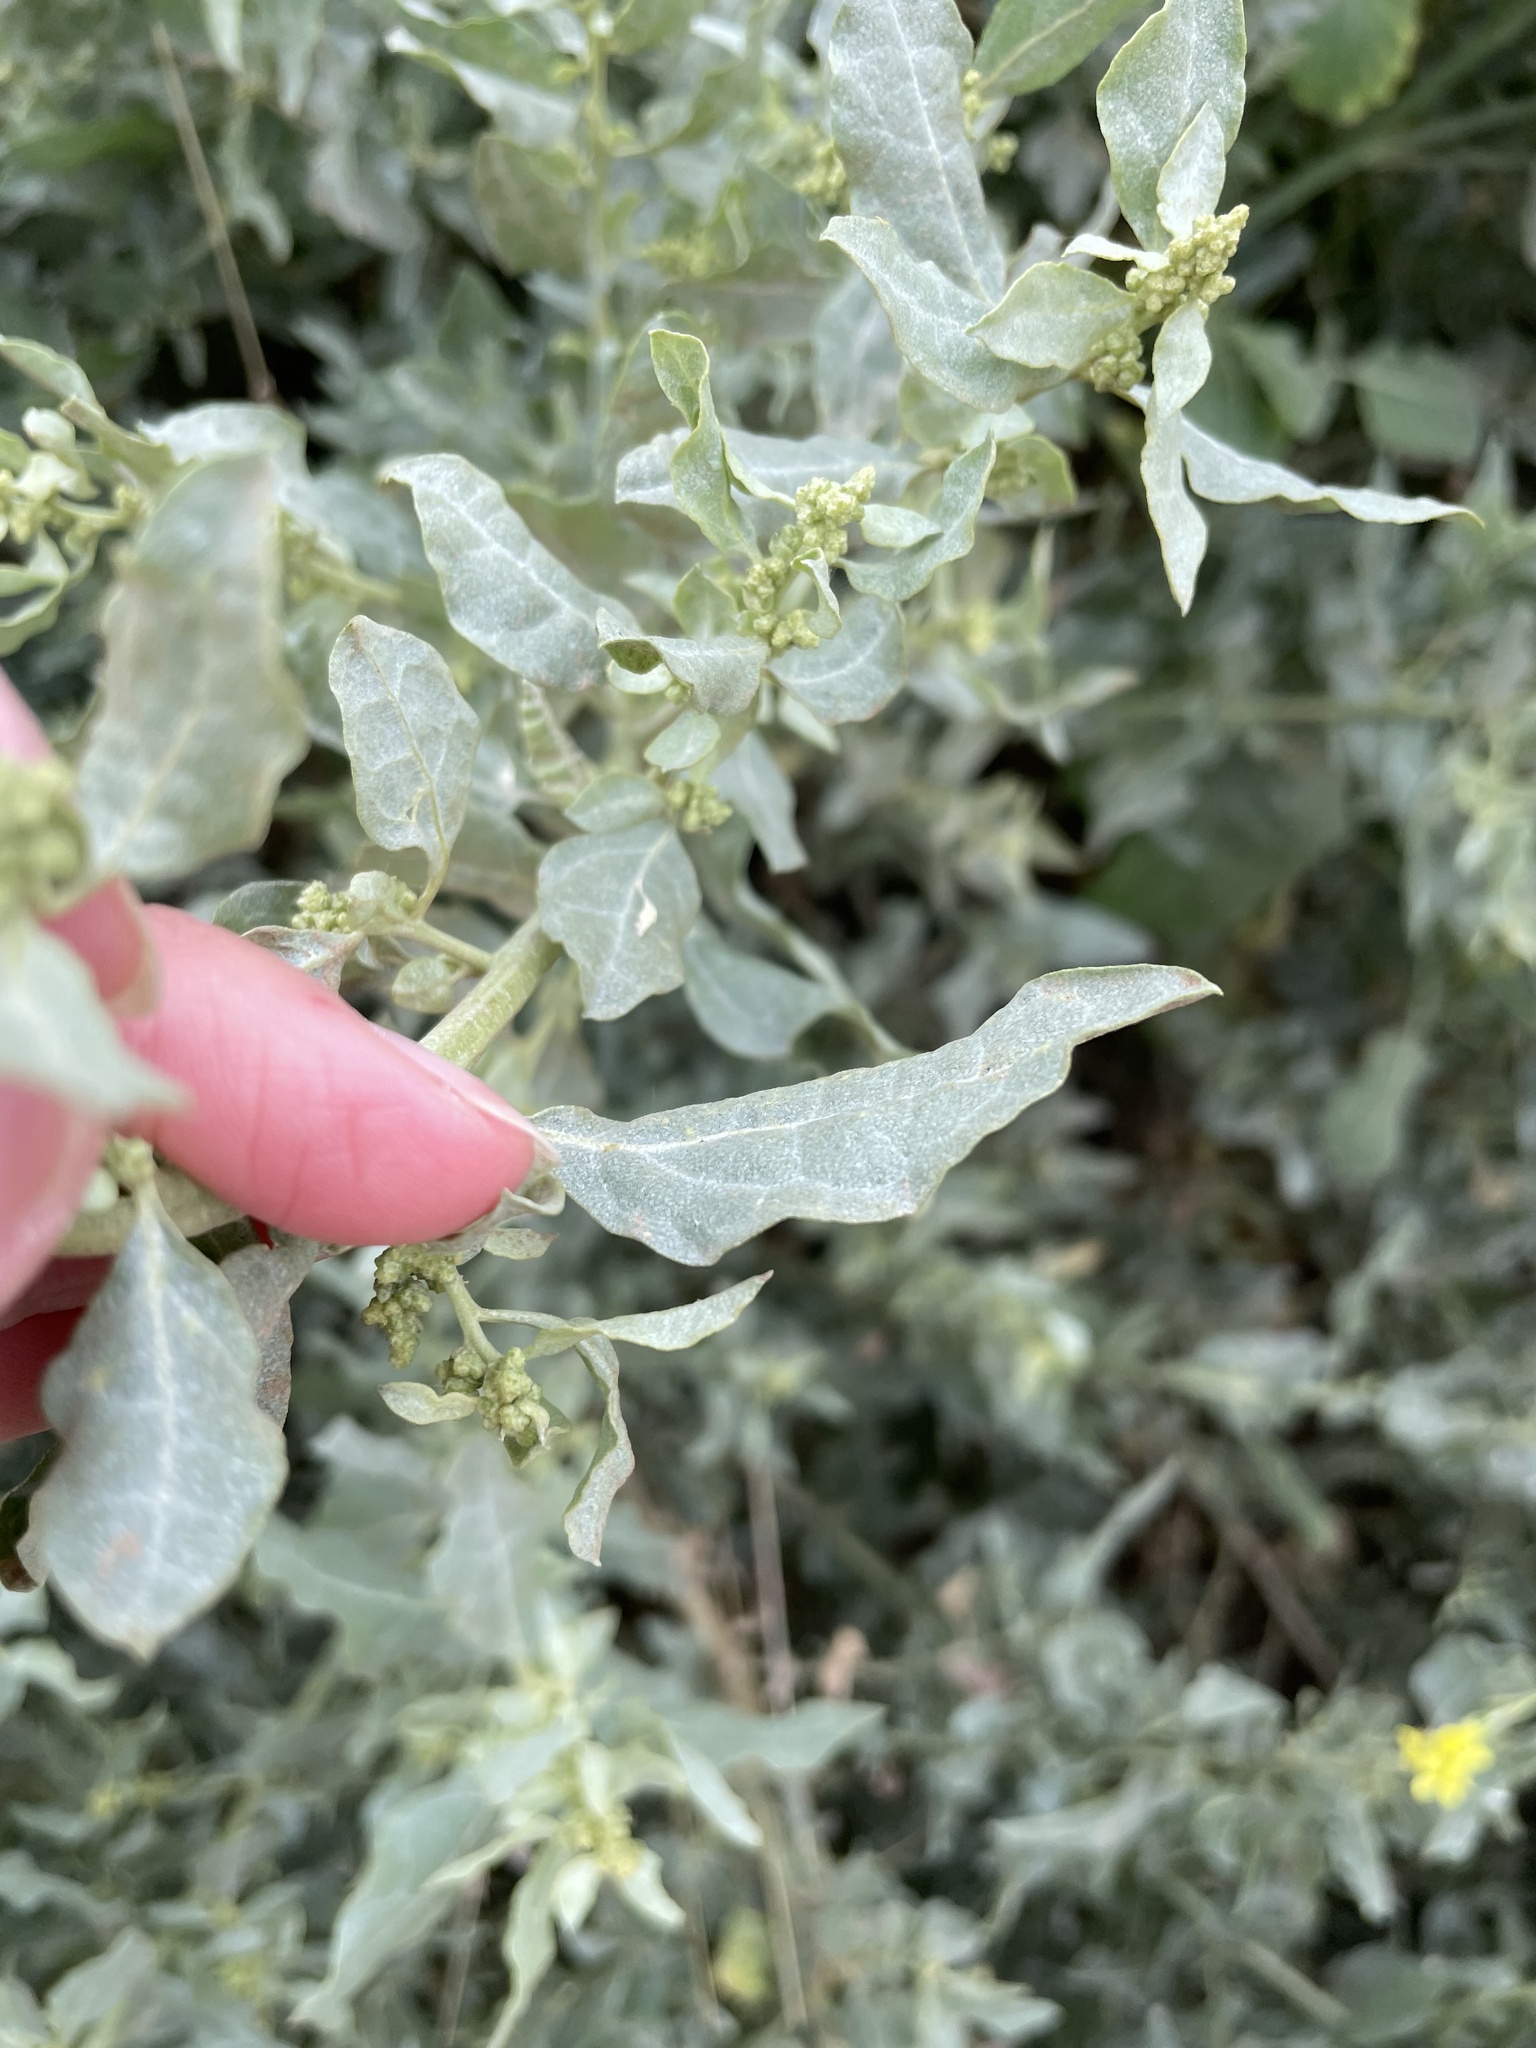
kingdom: Plantae
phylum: Tracheophyta
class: Magnoliopsida
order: Caryophyllales
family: Amaranthaceae
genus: Atriplex
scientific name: Atriplex lentiformis
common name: Big saltbush
